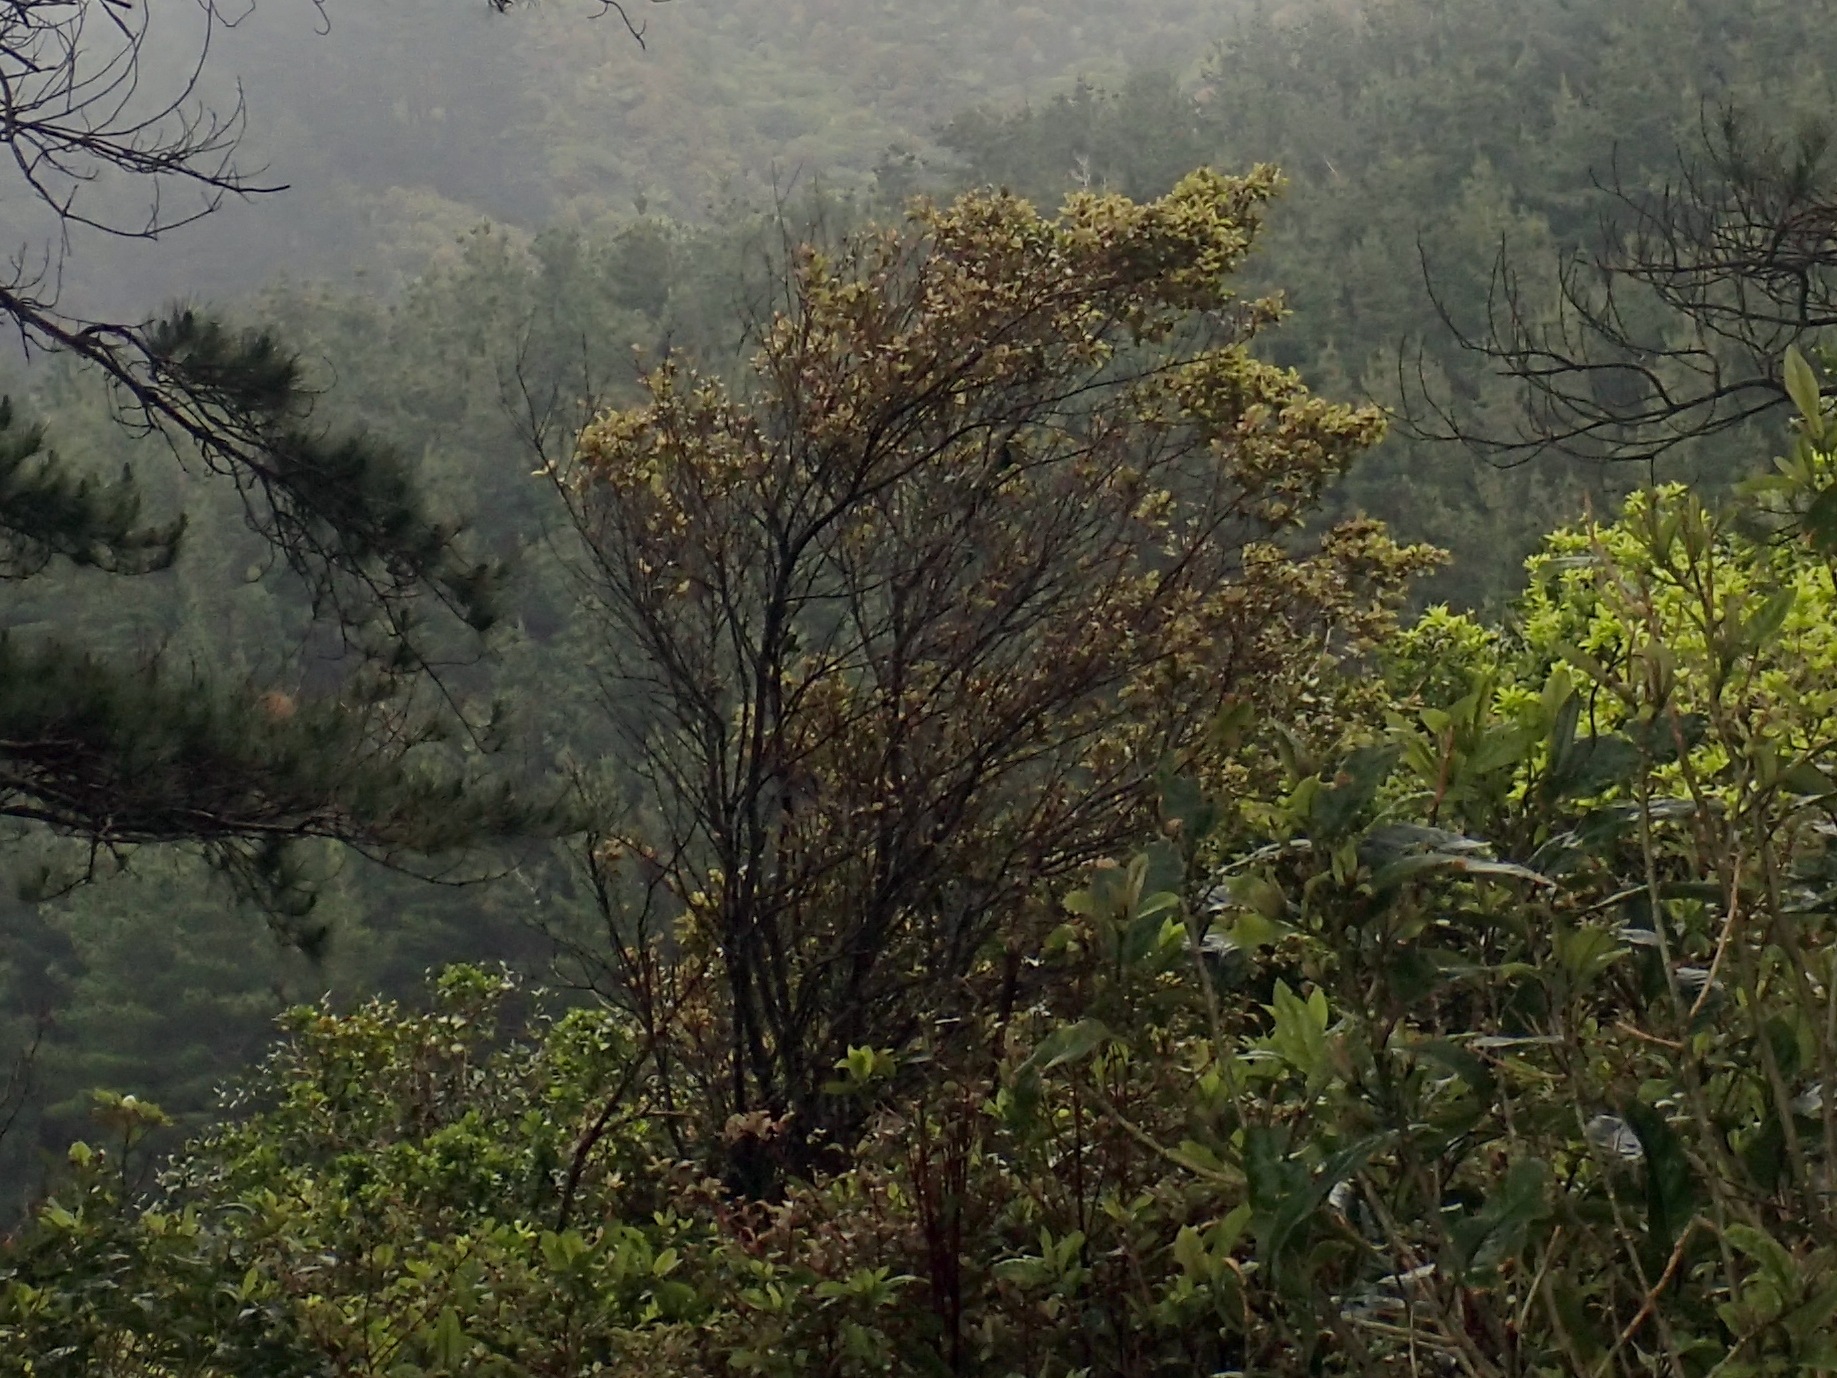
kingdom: Plantae
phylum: Tracheophyta
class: Magnoliopsida
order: Ericales
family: Primulaceae
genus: Myrsine
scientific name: Myrsine australis
